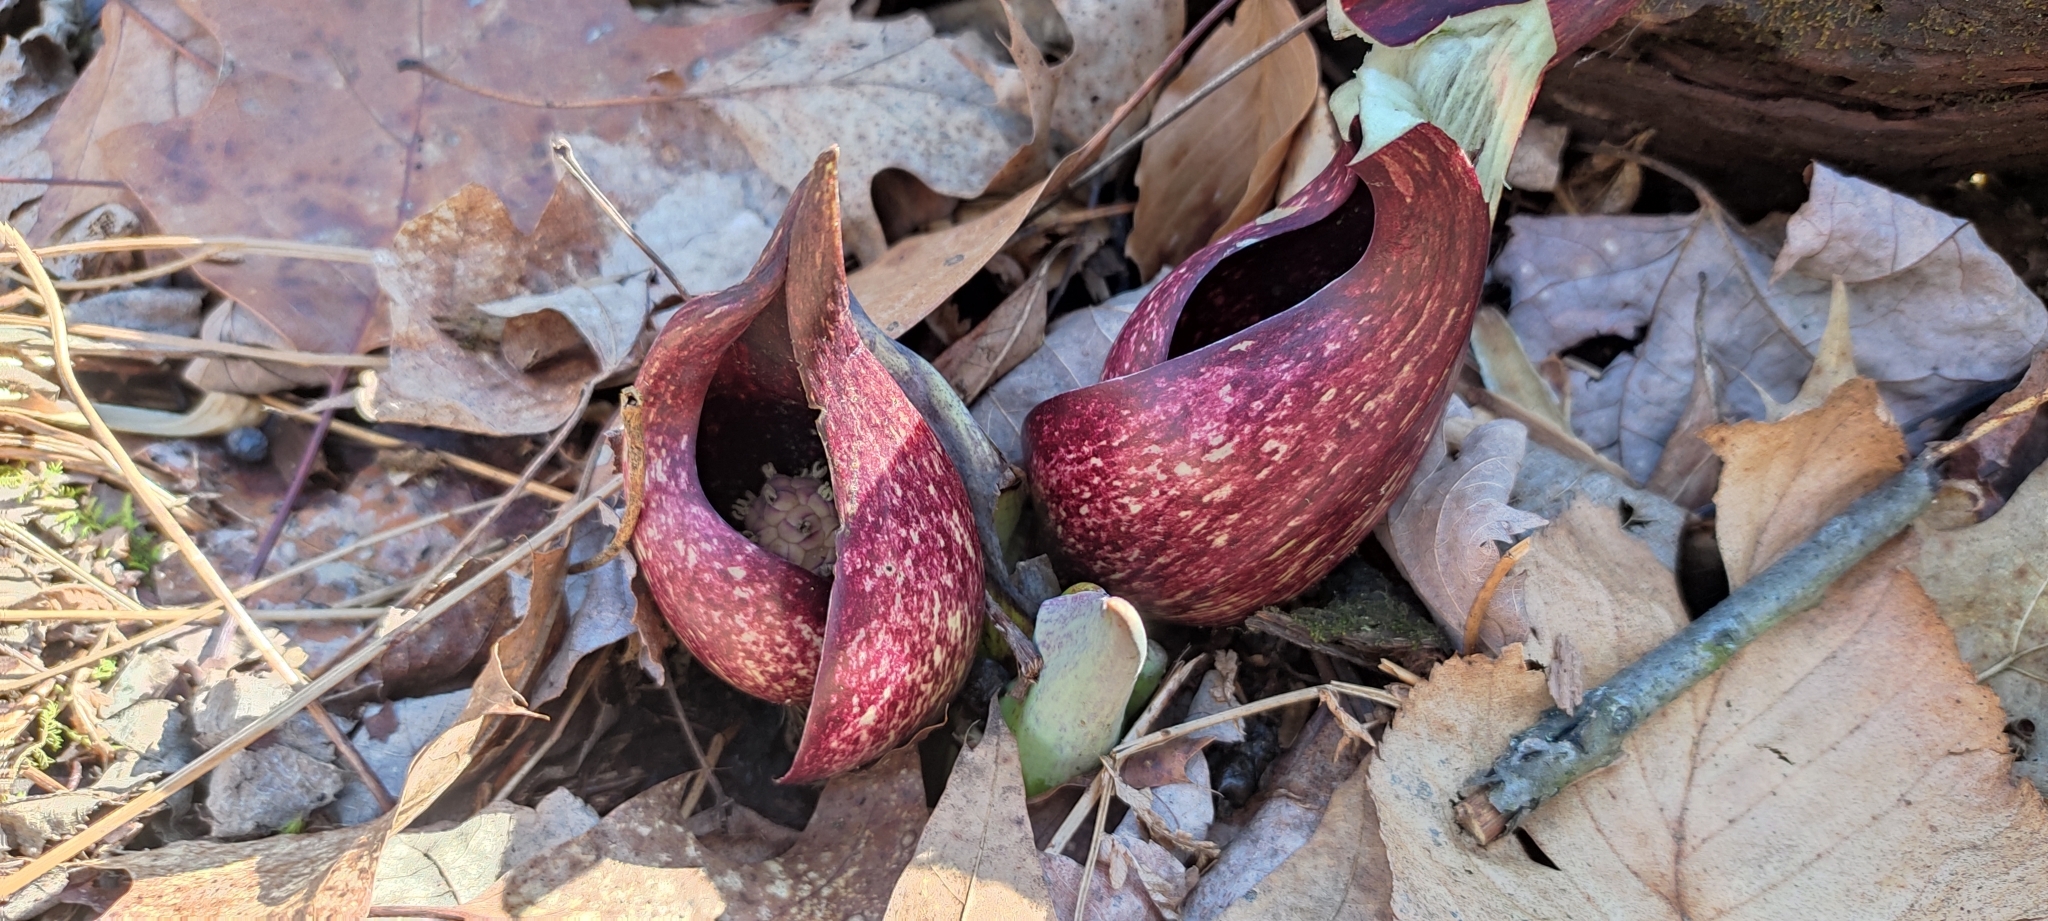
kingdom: Plantae
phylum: Tracheophyta
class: Liliopsida
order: Alismatales
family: Araceae
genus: Symplocarpus
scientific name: Symplocarpus foetidus
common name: Eastern skunk cabbage
